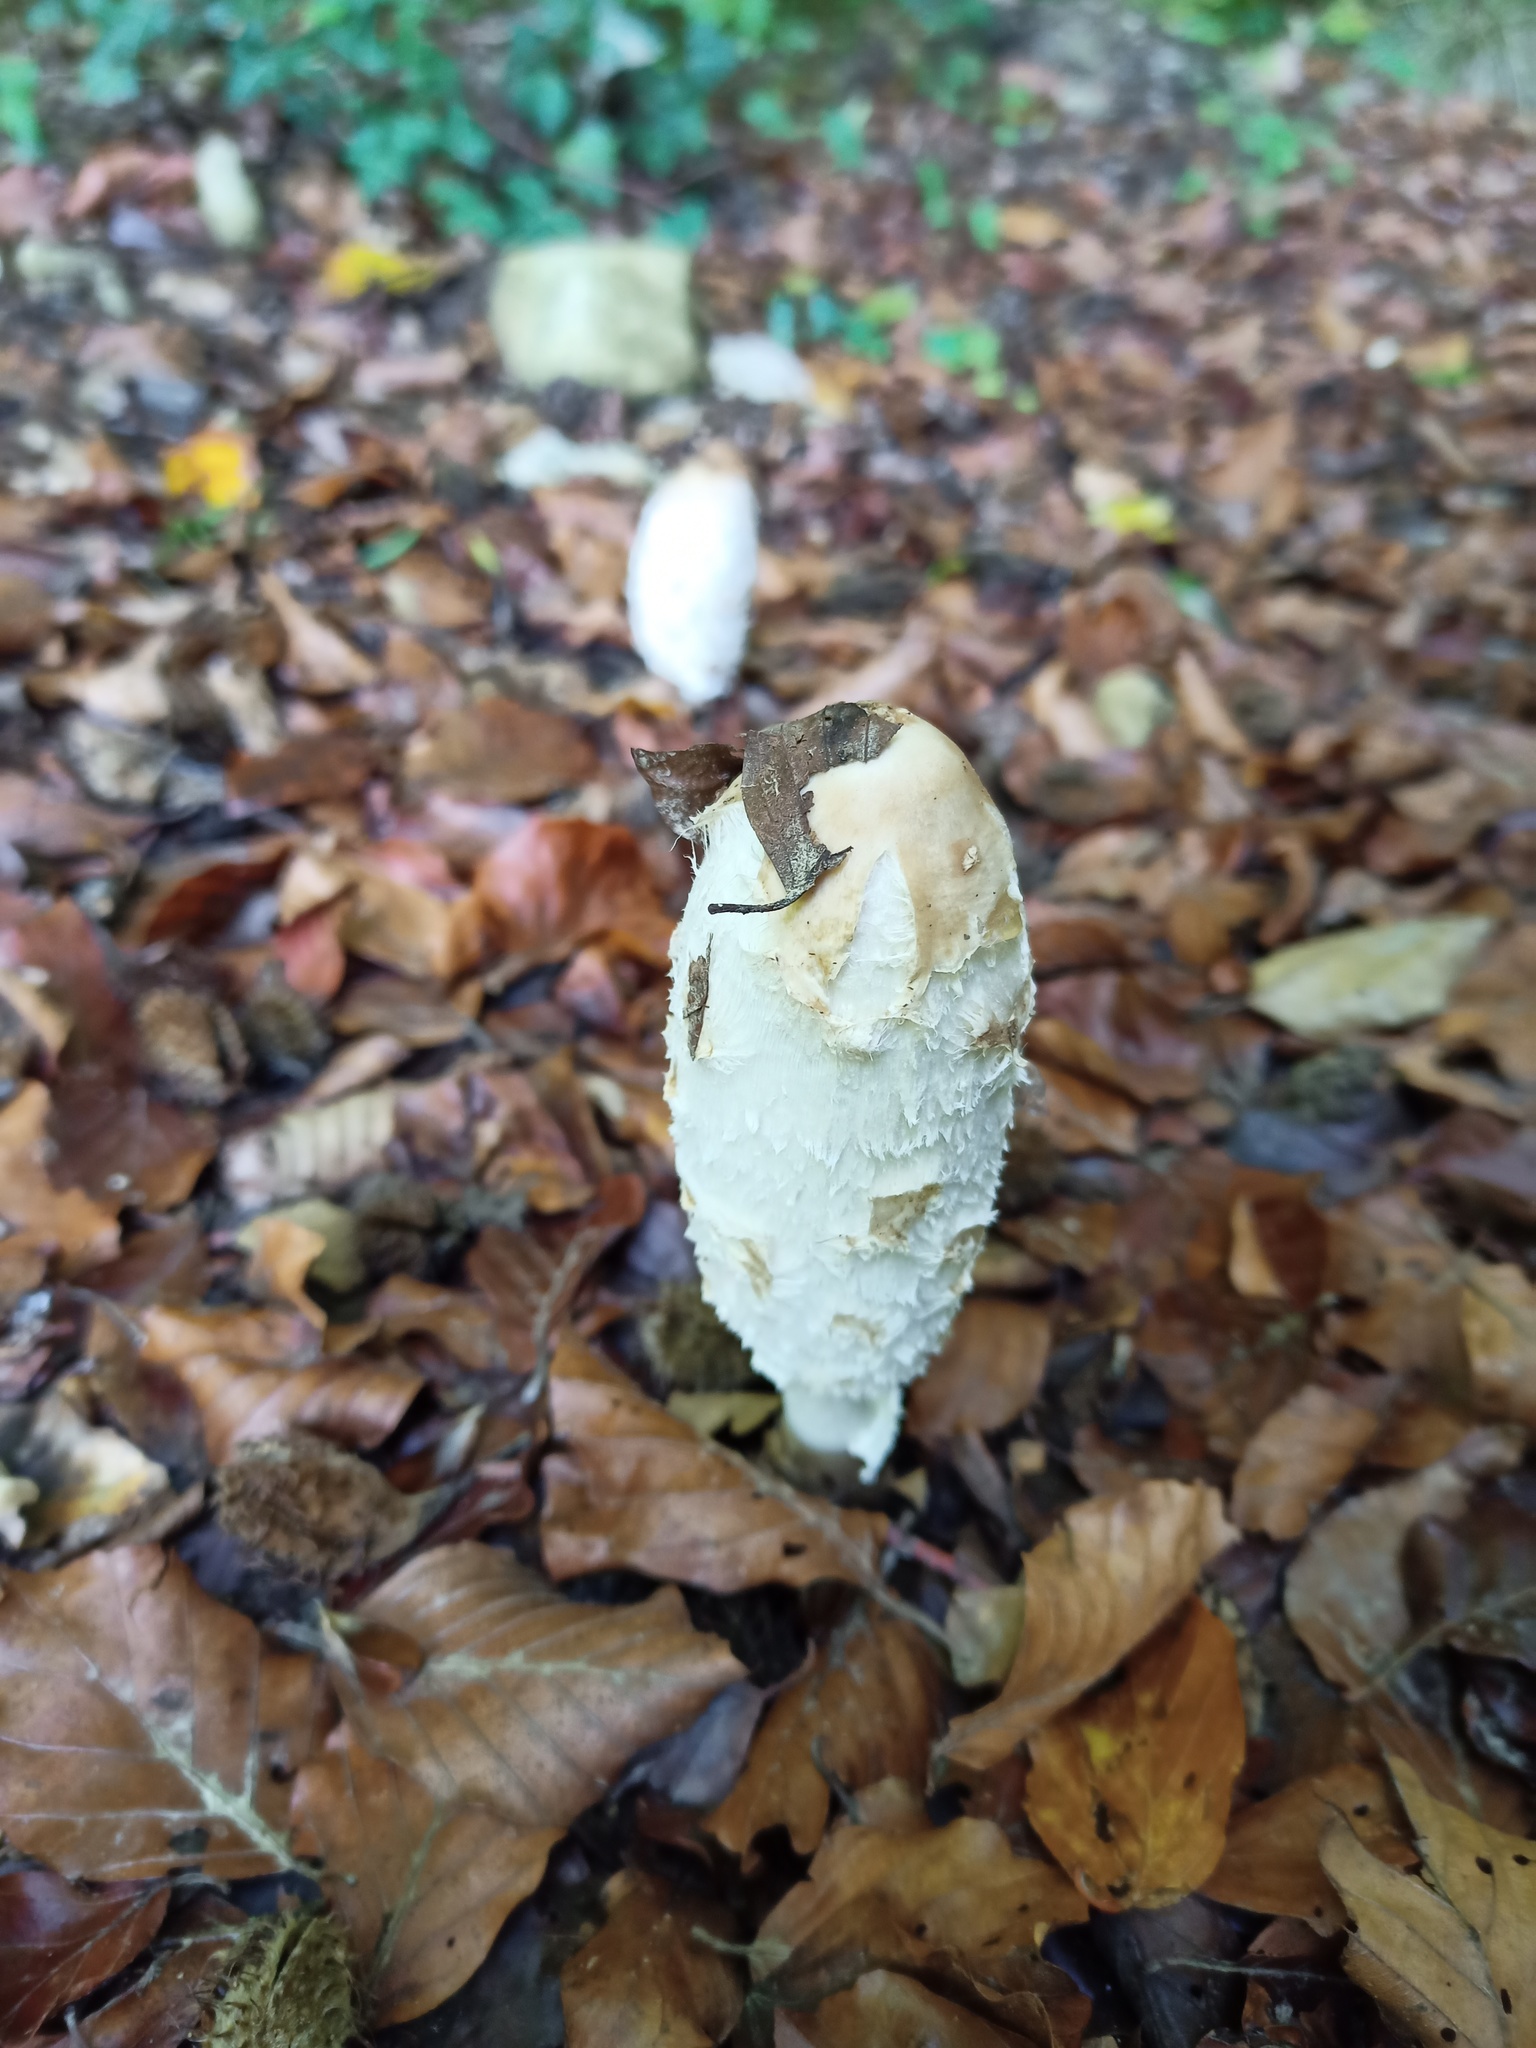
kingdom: Fungi
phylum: Basidiomycota
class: Agaricomycetes
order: Agaricales
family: Agaricaceae
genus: Coprinus
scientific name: Coprinus comatus
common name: Lawyer's wig
